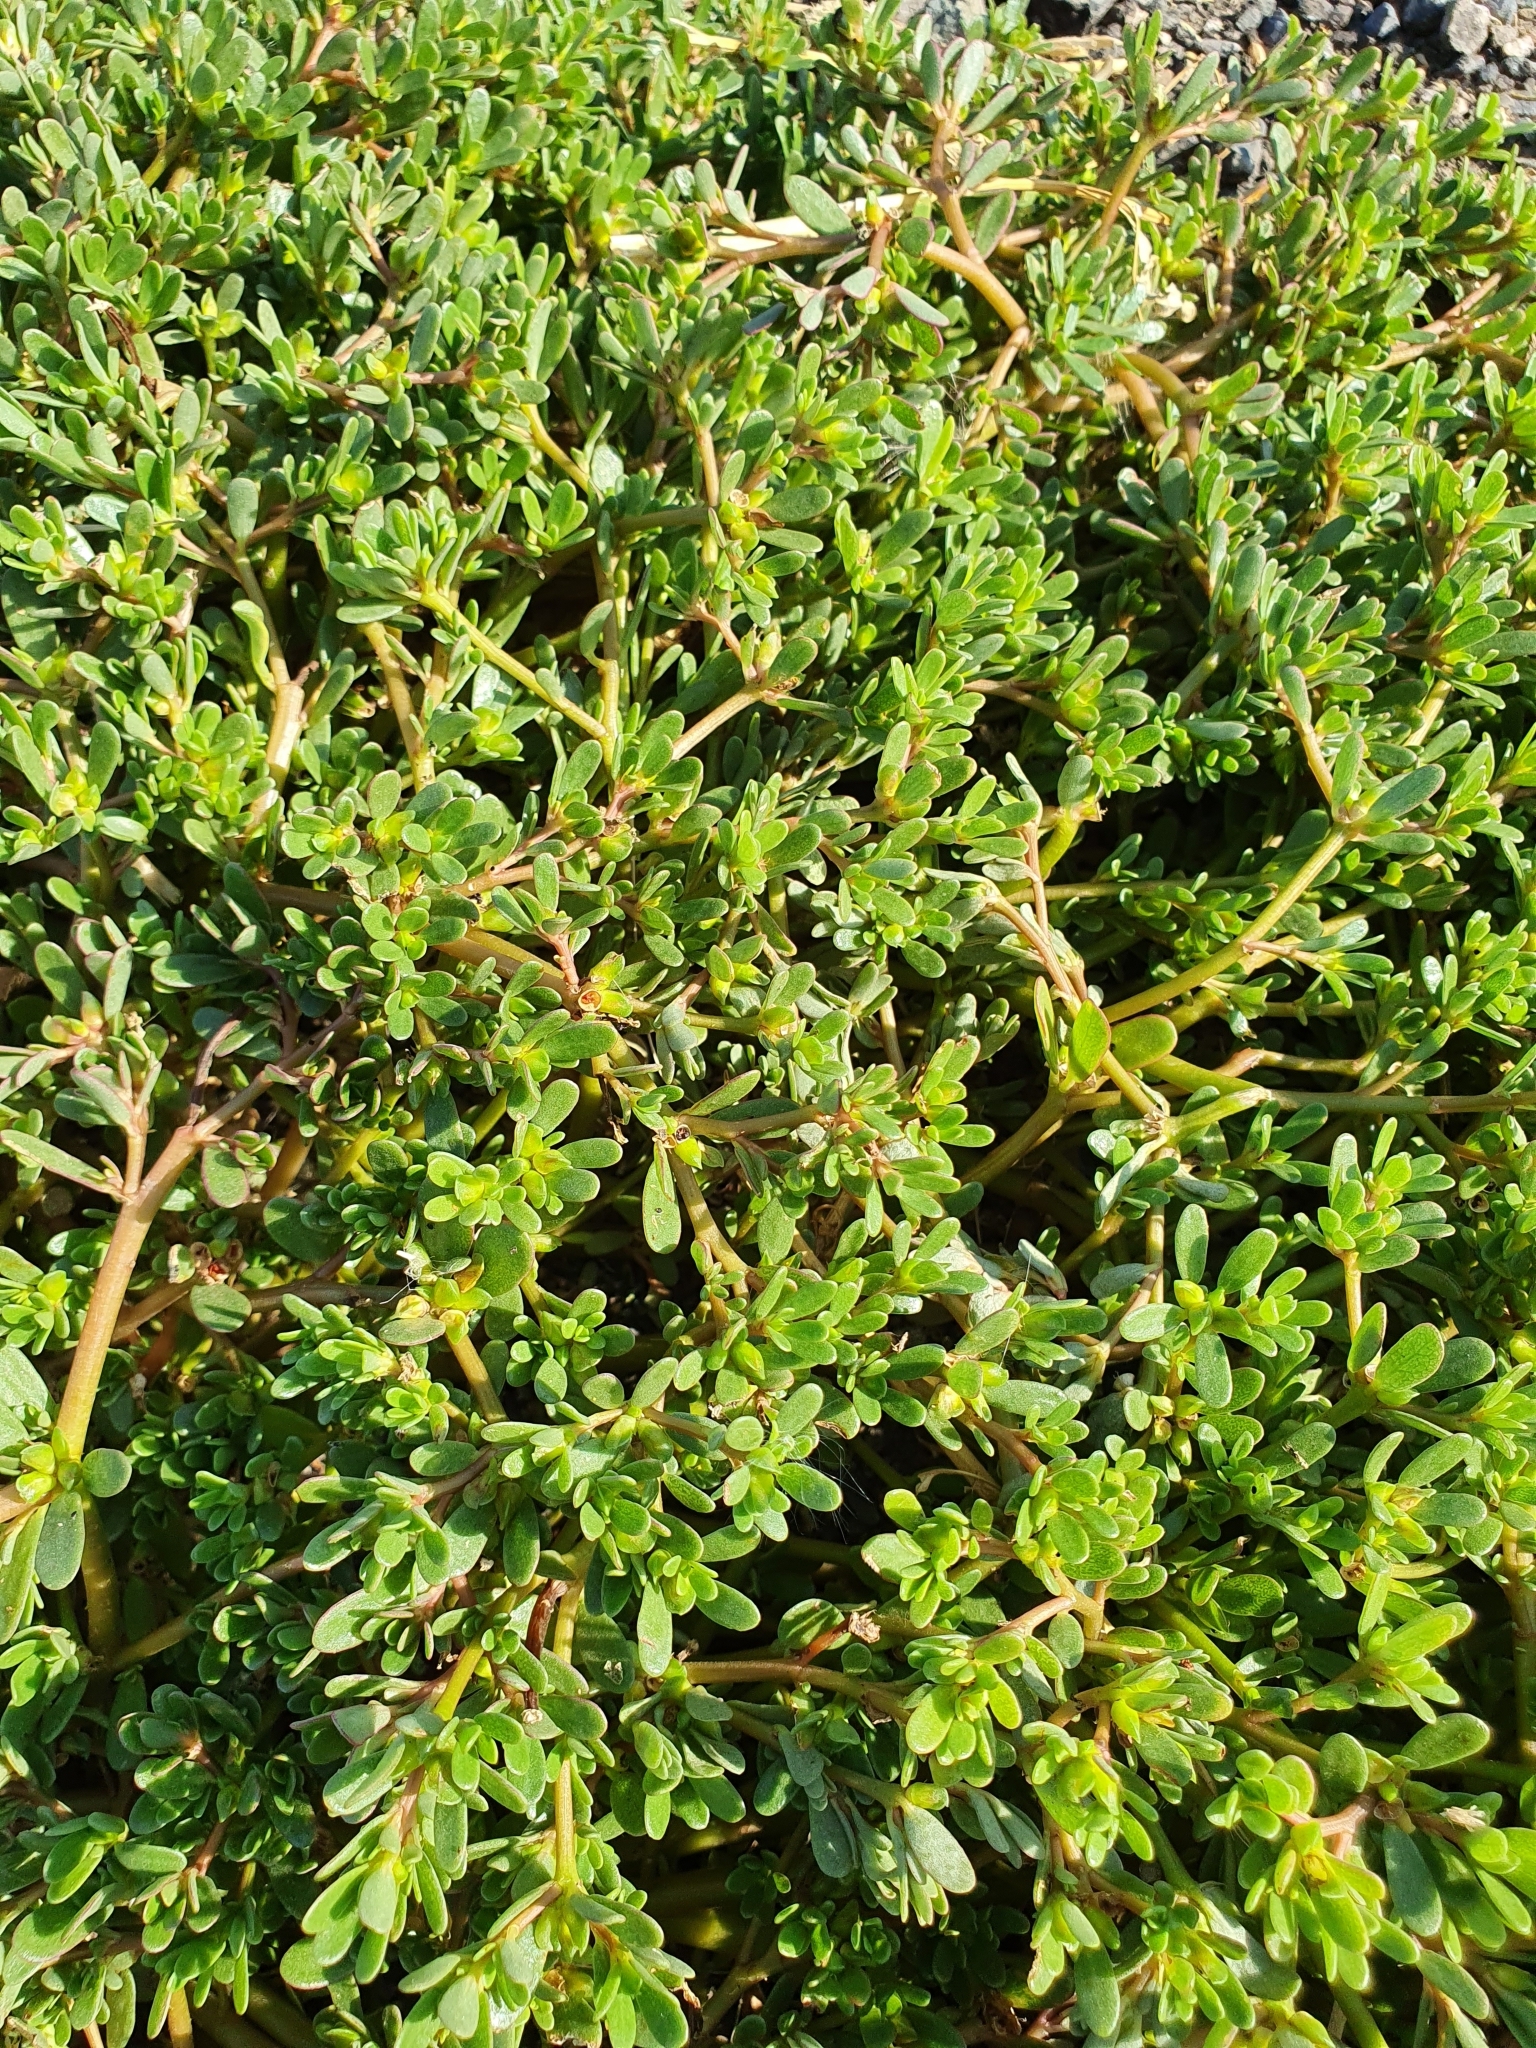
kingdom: Plantae
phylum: Tracheophyta
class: Magnoliopsida
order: Caryophyllales
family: Portulacaceae
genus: Portulaca
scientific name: Portulaca oleracea
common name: Common purslane
